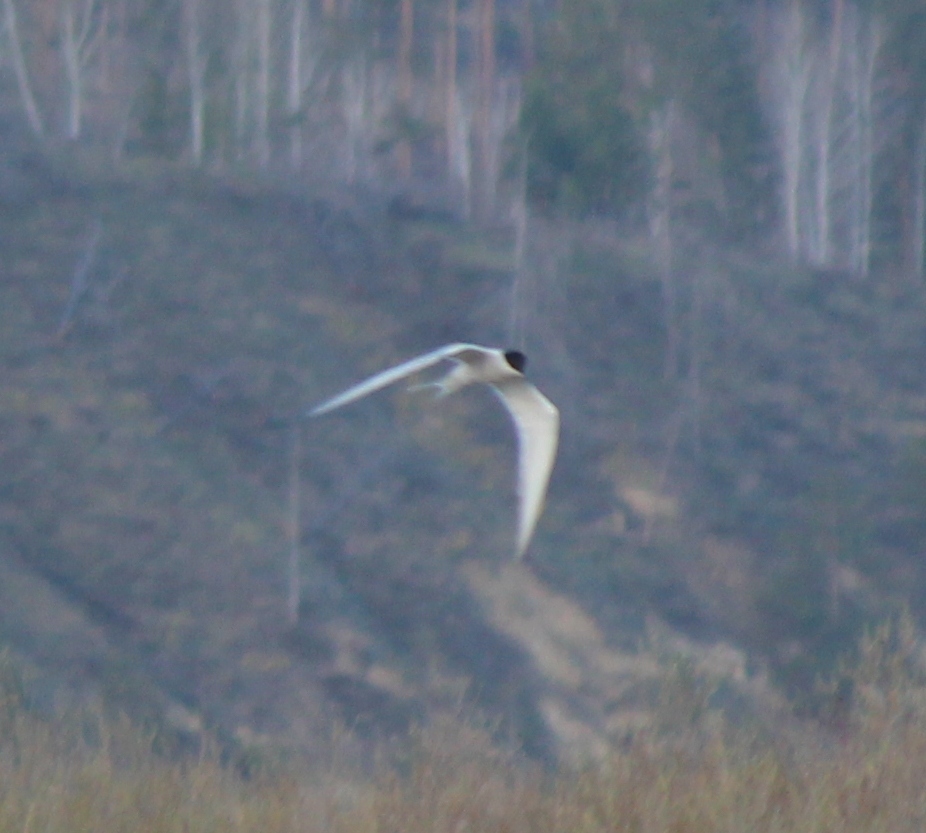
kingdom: Animalia
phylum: Chordata
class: Aves
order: Charadriiformes
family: Laridae
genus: Sterna
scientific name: Sterna hirundo
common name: Common tern
